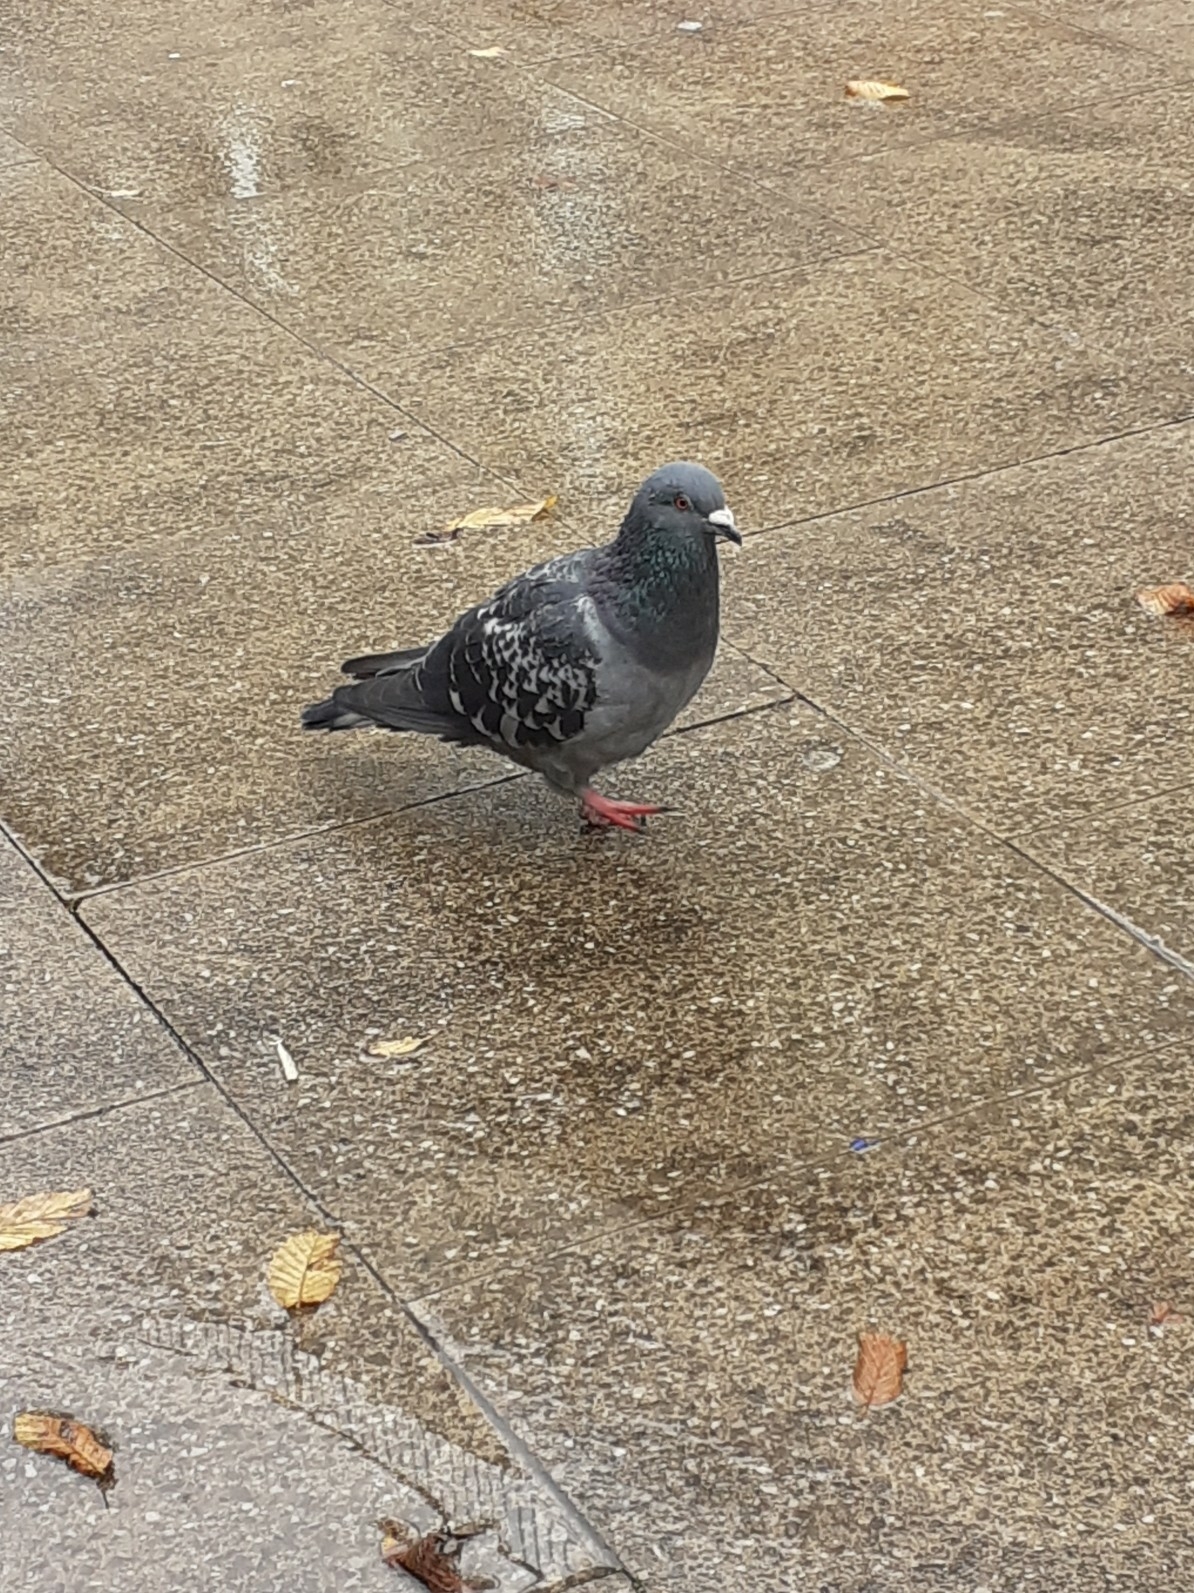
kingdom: Animalia
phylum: Chordata
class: Aves
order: Columbiformes
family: Columbidae
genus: Columba
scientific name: Columba livia
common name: Rock pigeon
